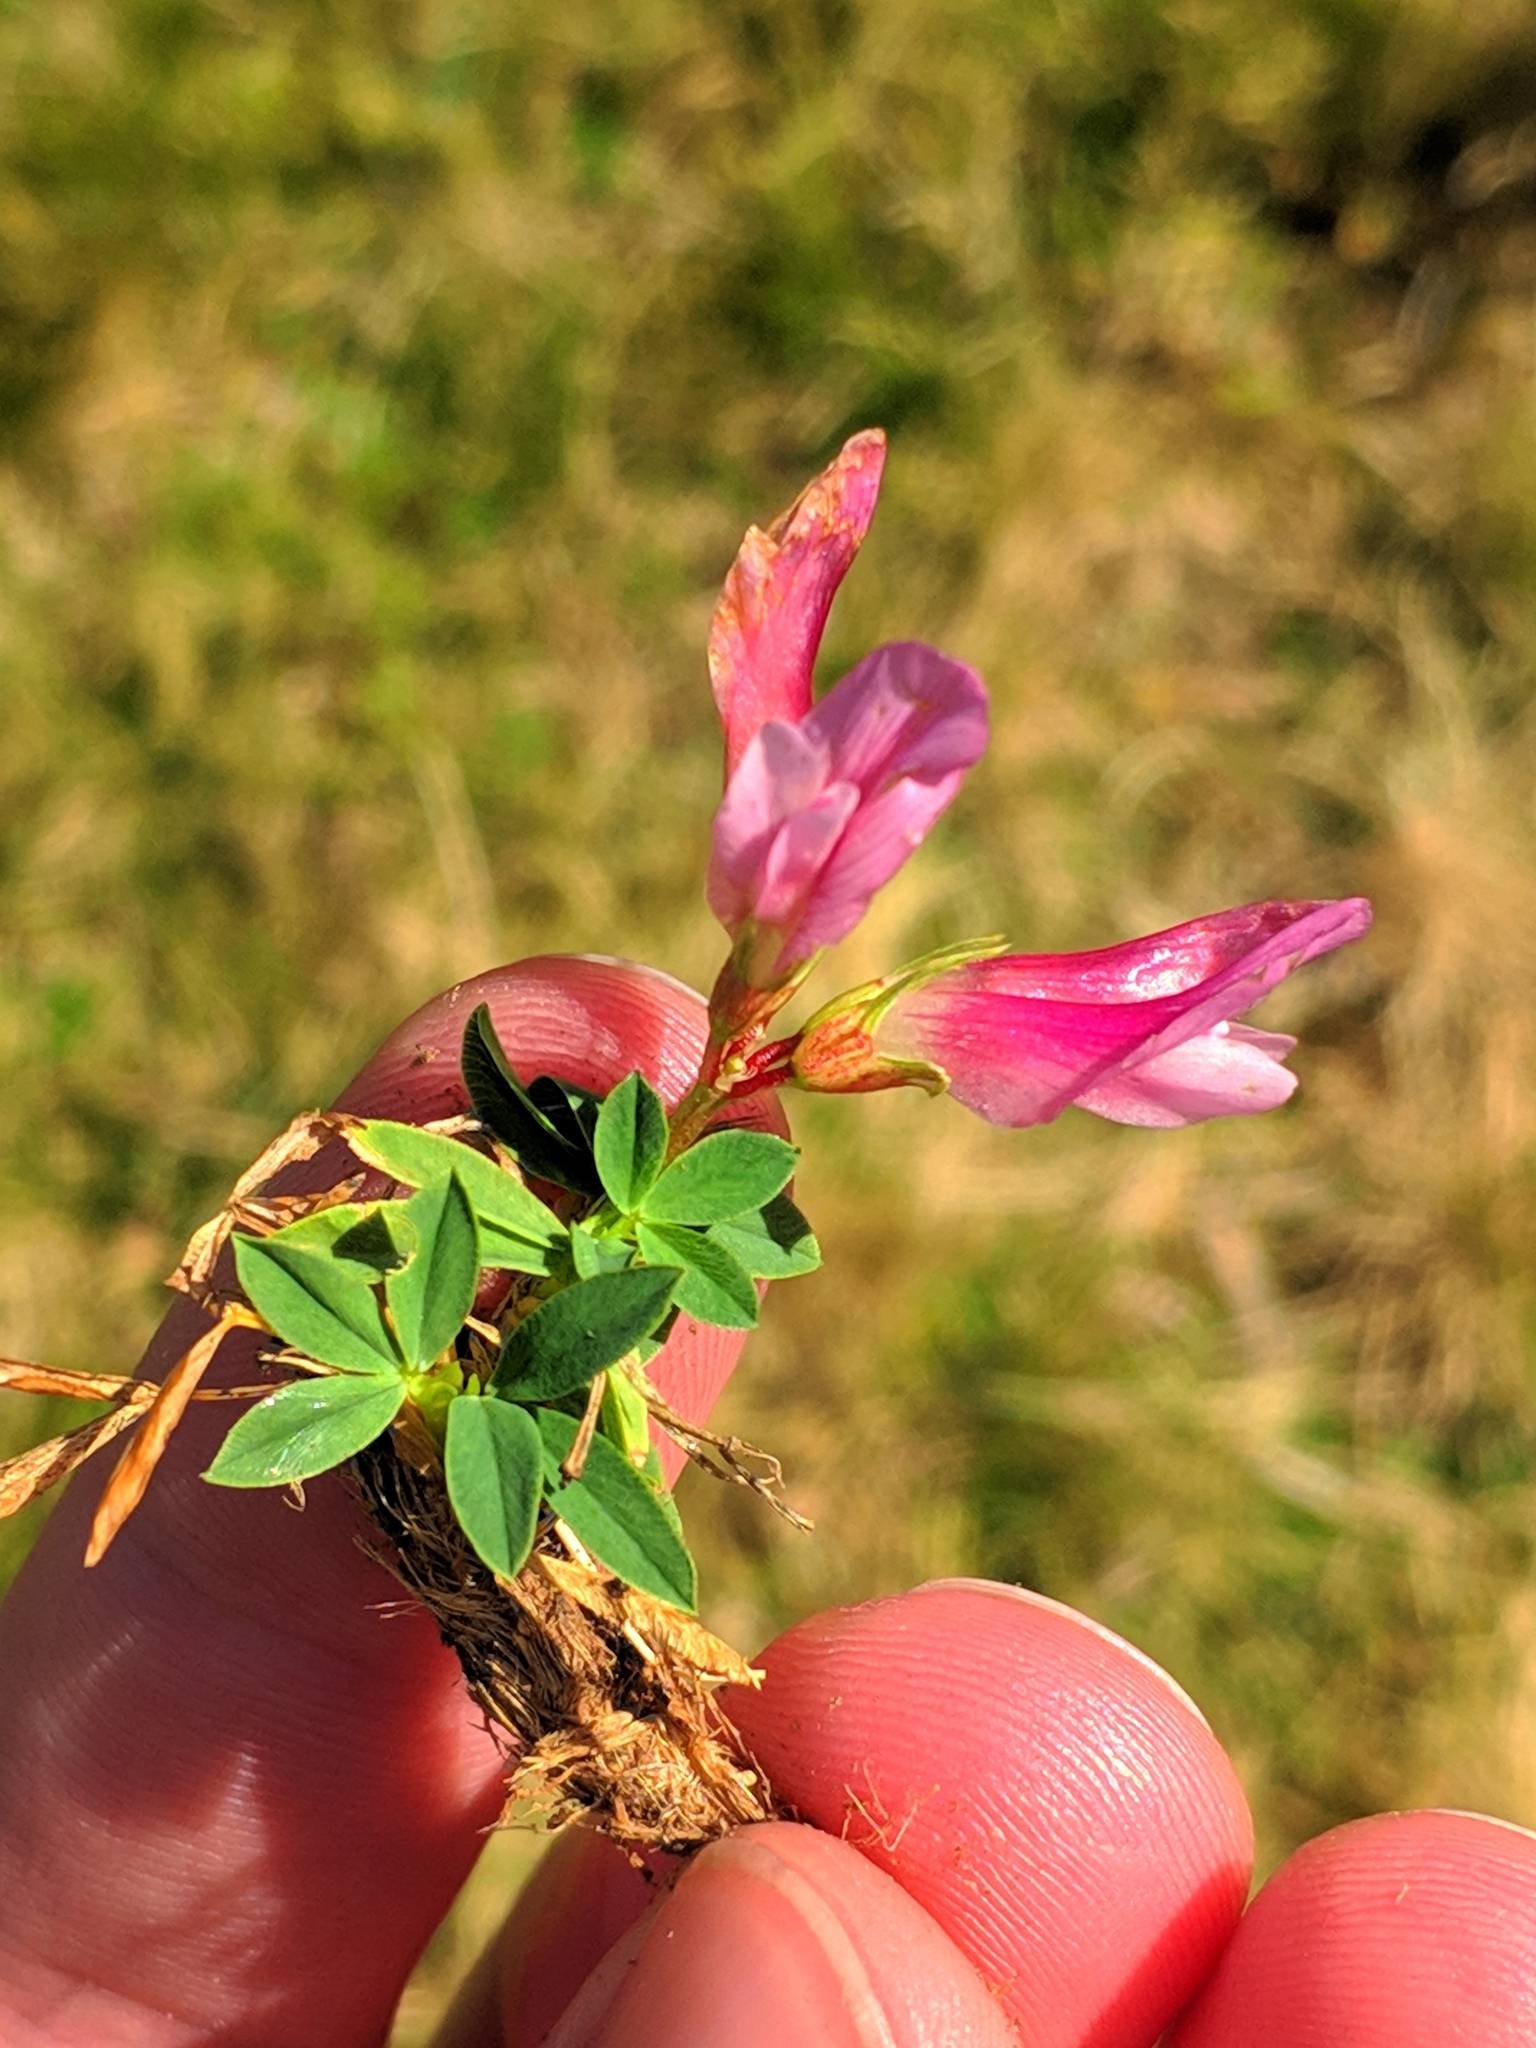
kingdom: Plantae
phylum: Tracheophyta
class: Magnoliopsida
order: Fabales
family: Fabaceae
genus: Trifolium
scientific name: Trifolium alpinum
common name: Alpine clover
